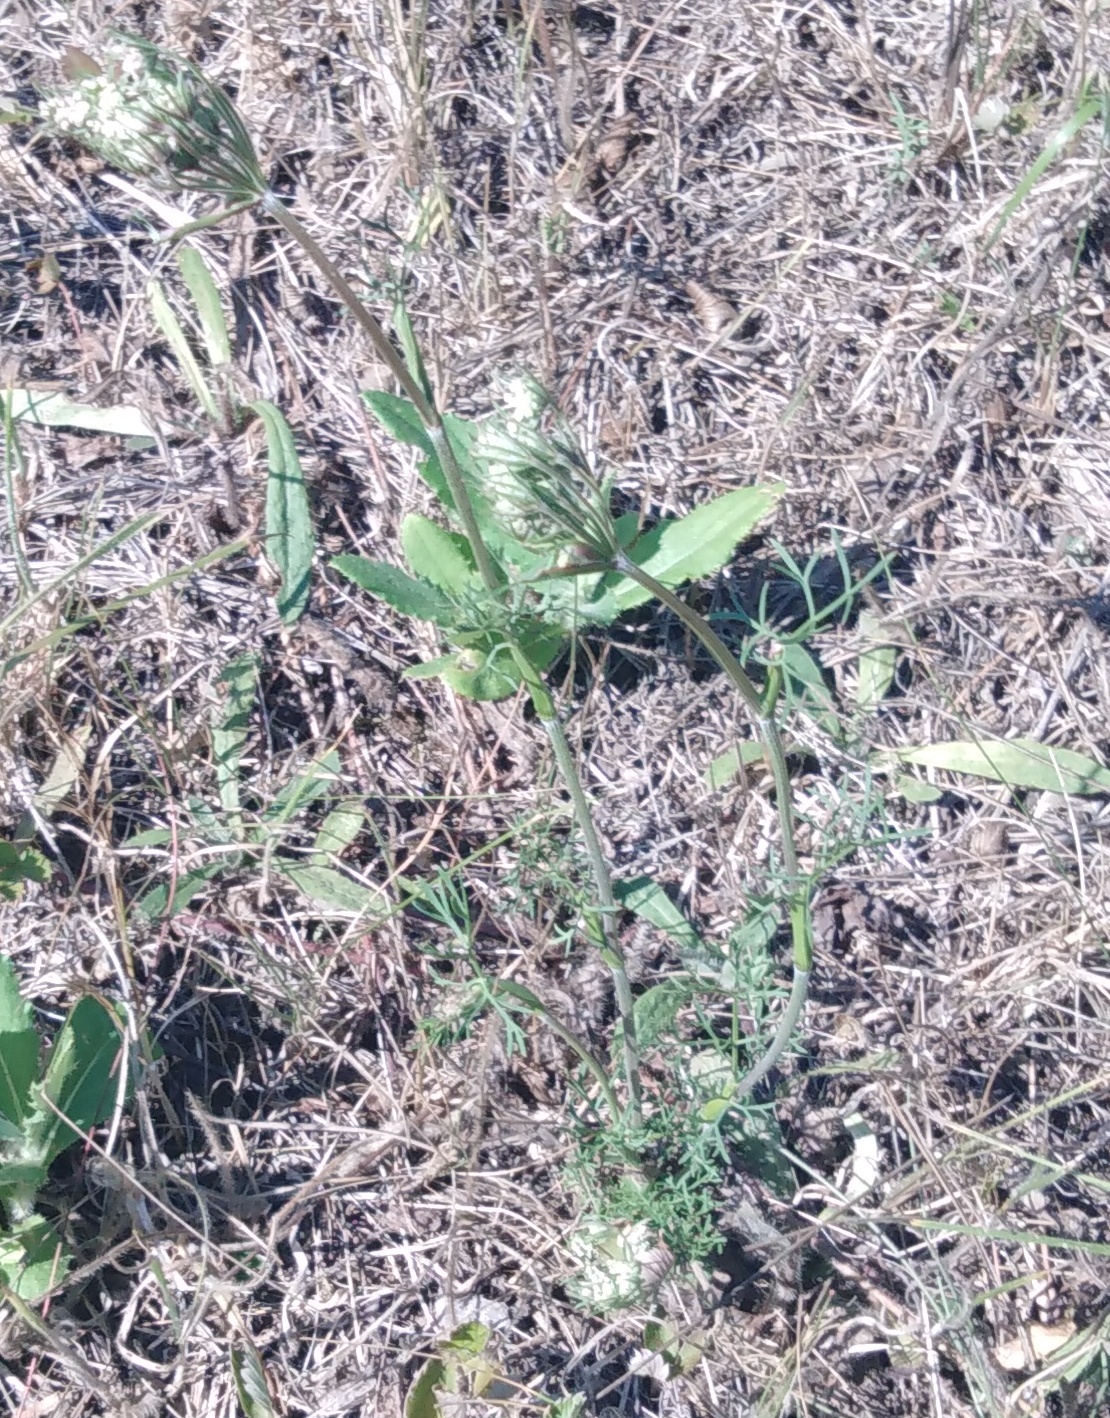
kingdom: Plantae
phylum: Tracheophyta
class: Magnoliopsida
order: Apiales
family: Apiaceae
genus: Seseli
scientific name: Seseli annuum
